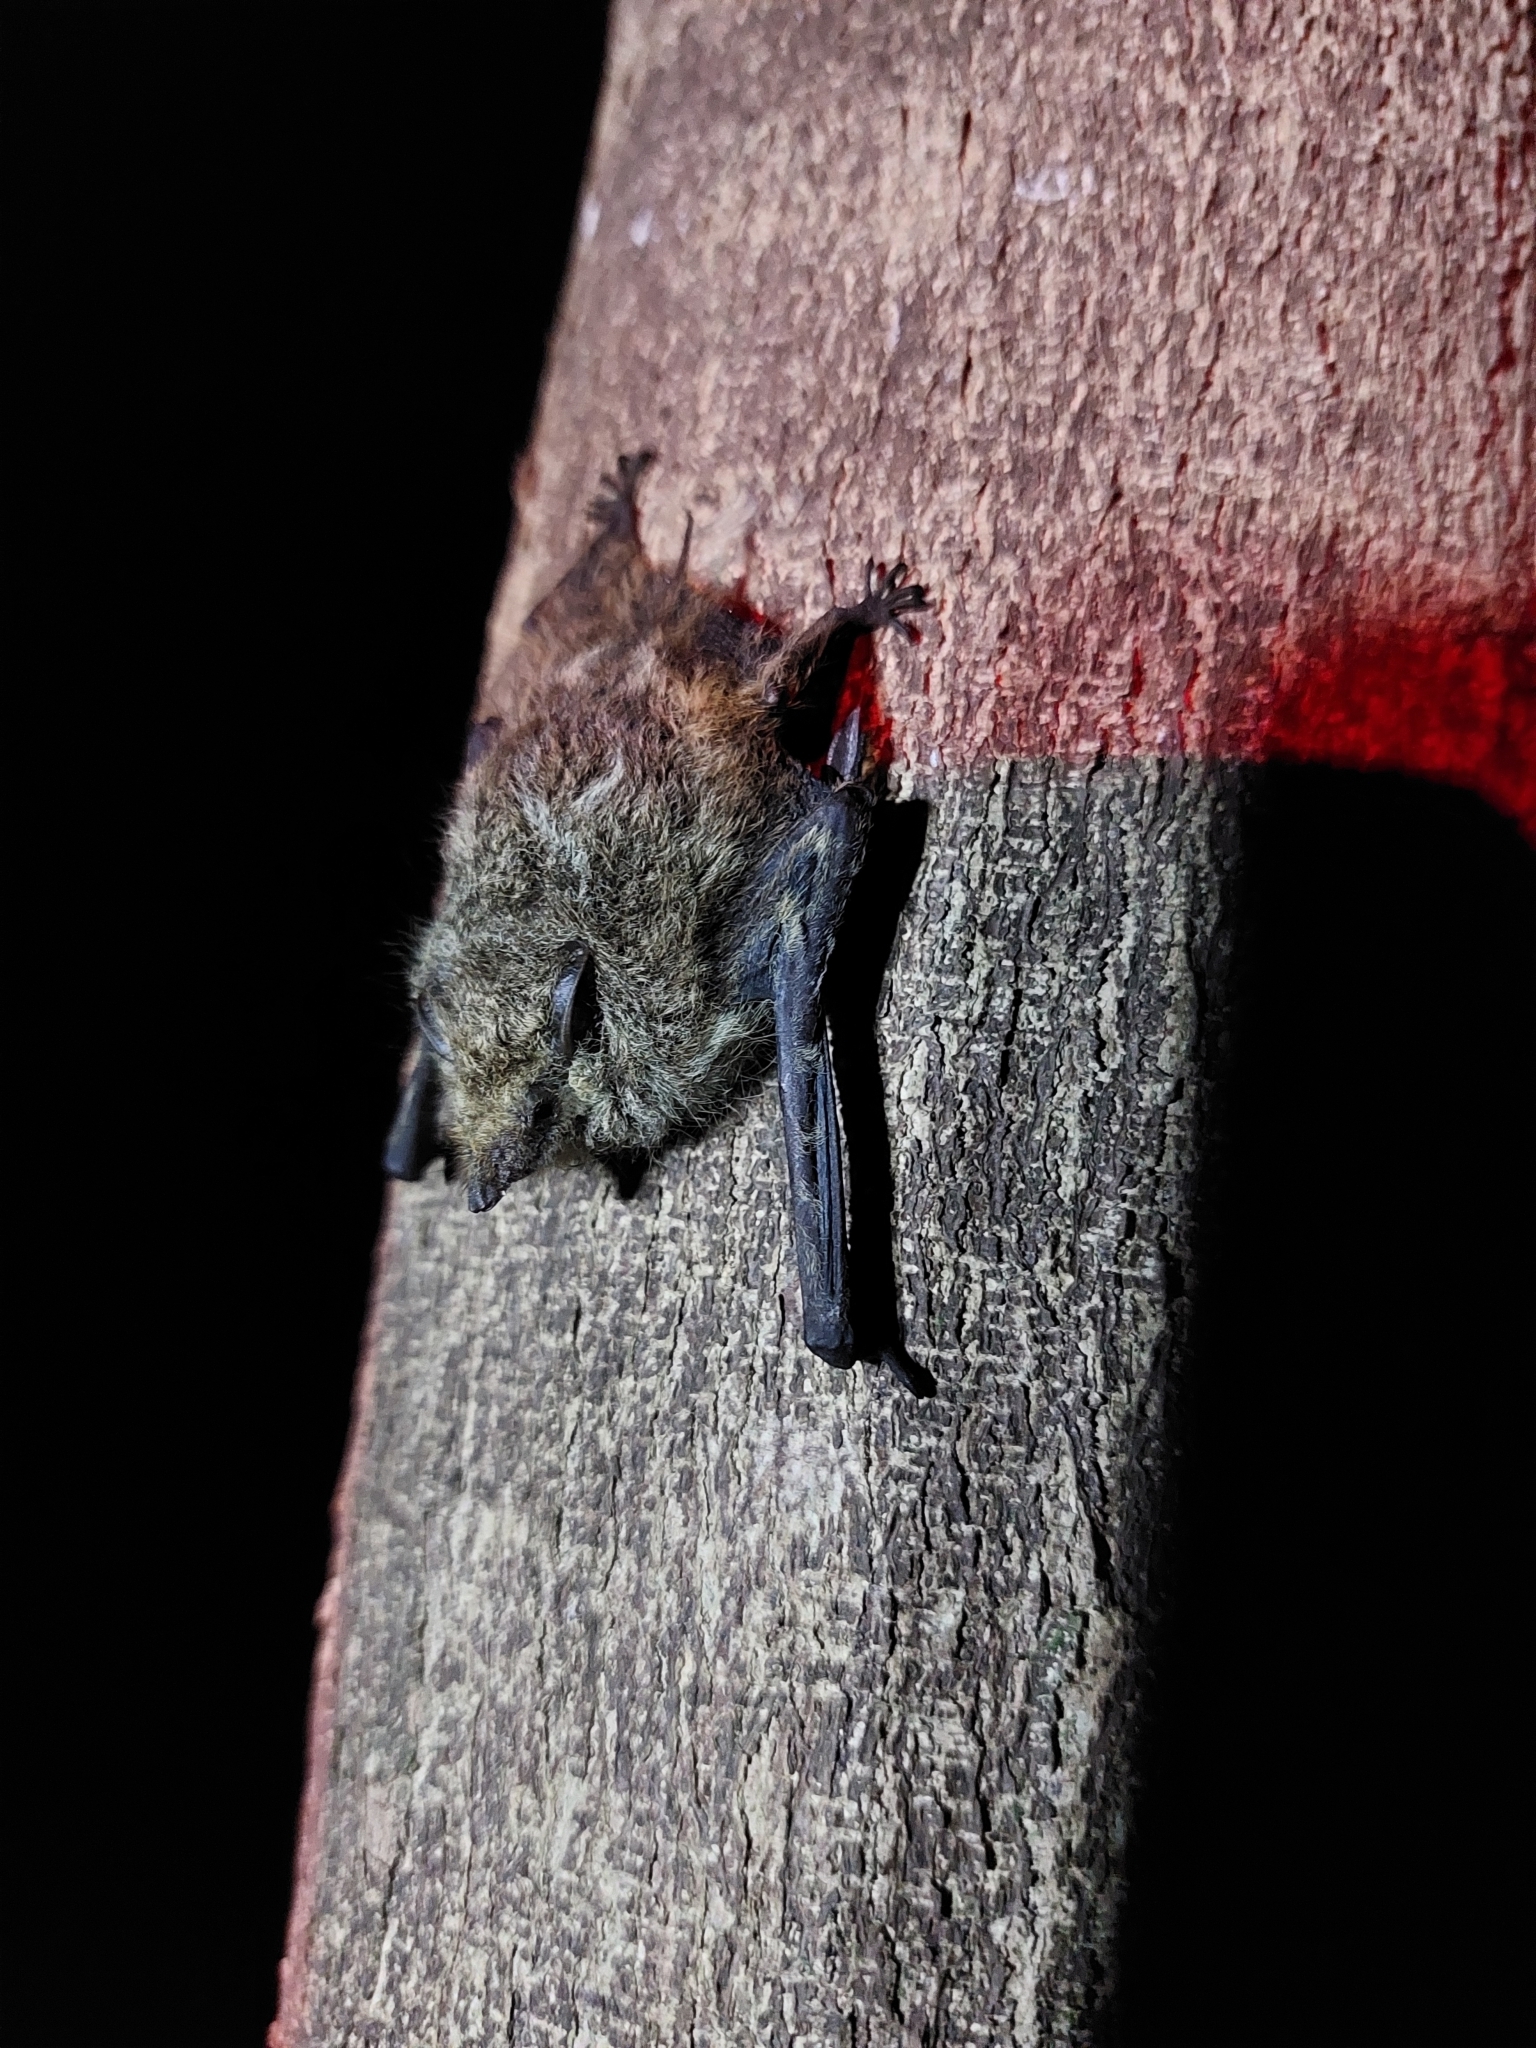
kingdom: Animalia
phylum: Chordata
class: Mammalia
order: Chiroptera
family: Emballonuridae
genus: Rhynchonycteris
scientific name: Rhynchonycteris naso
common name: Proboscis bat
